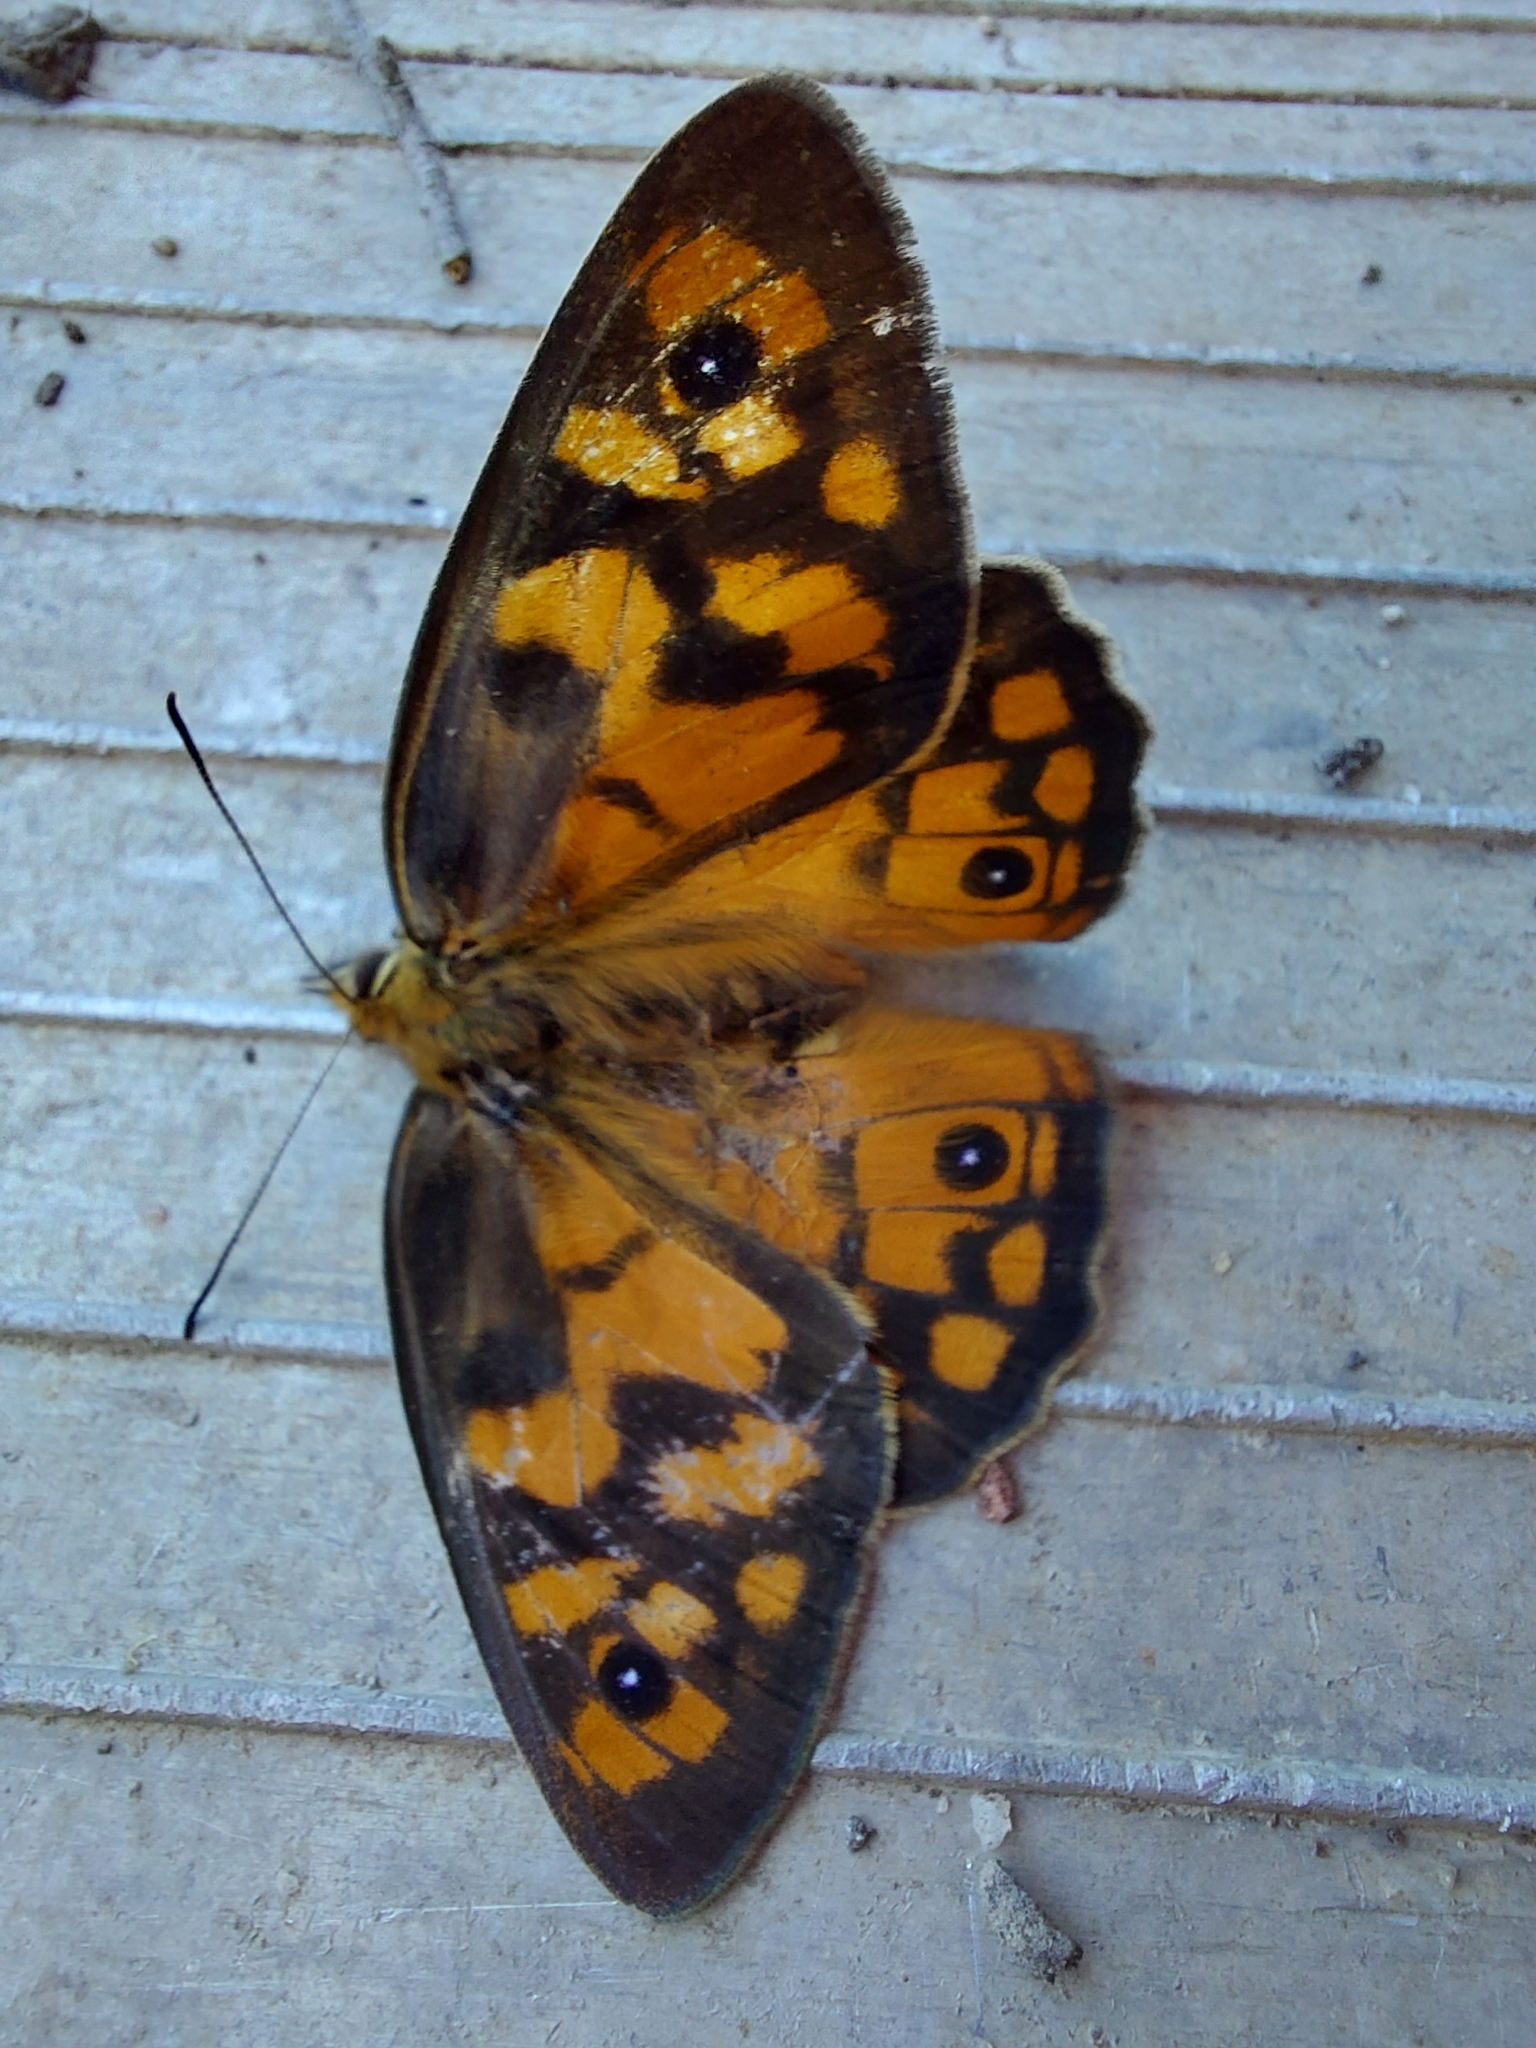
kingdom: Animalia
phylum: Arthropoda
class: Insecta
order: Lepidoptera
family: Nymphalidae
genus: Heteronympha
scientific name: Heteronympha penelope
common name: Shouldered brown
